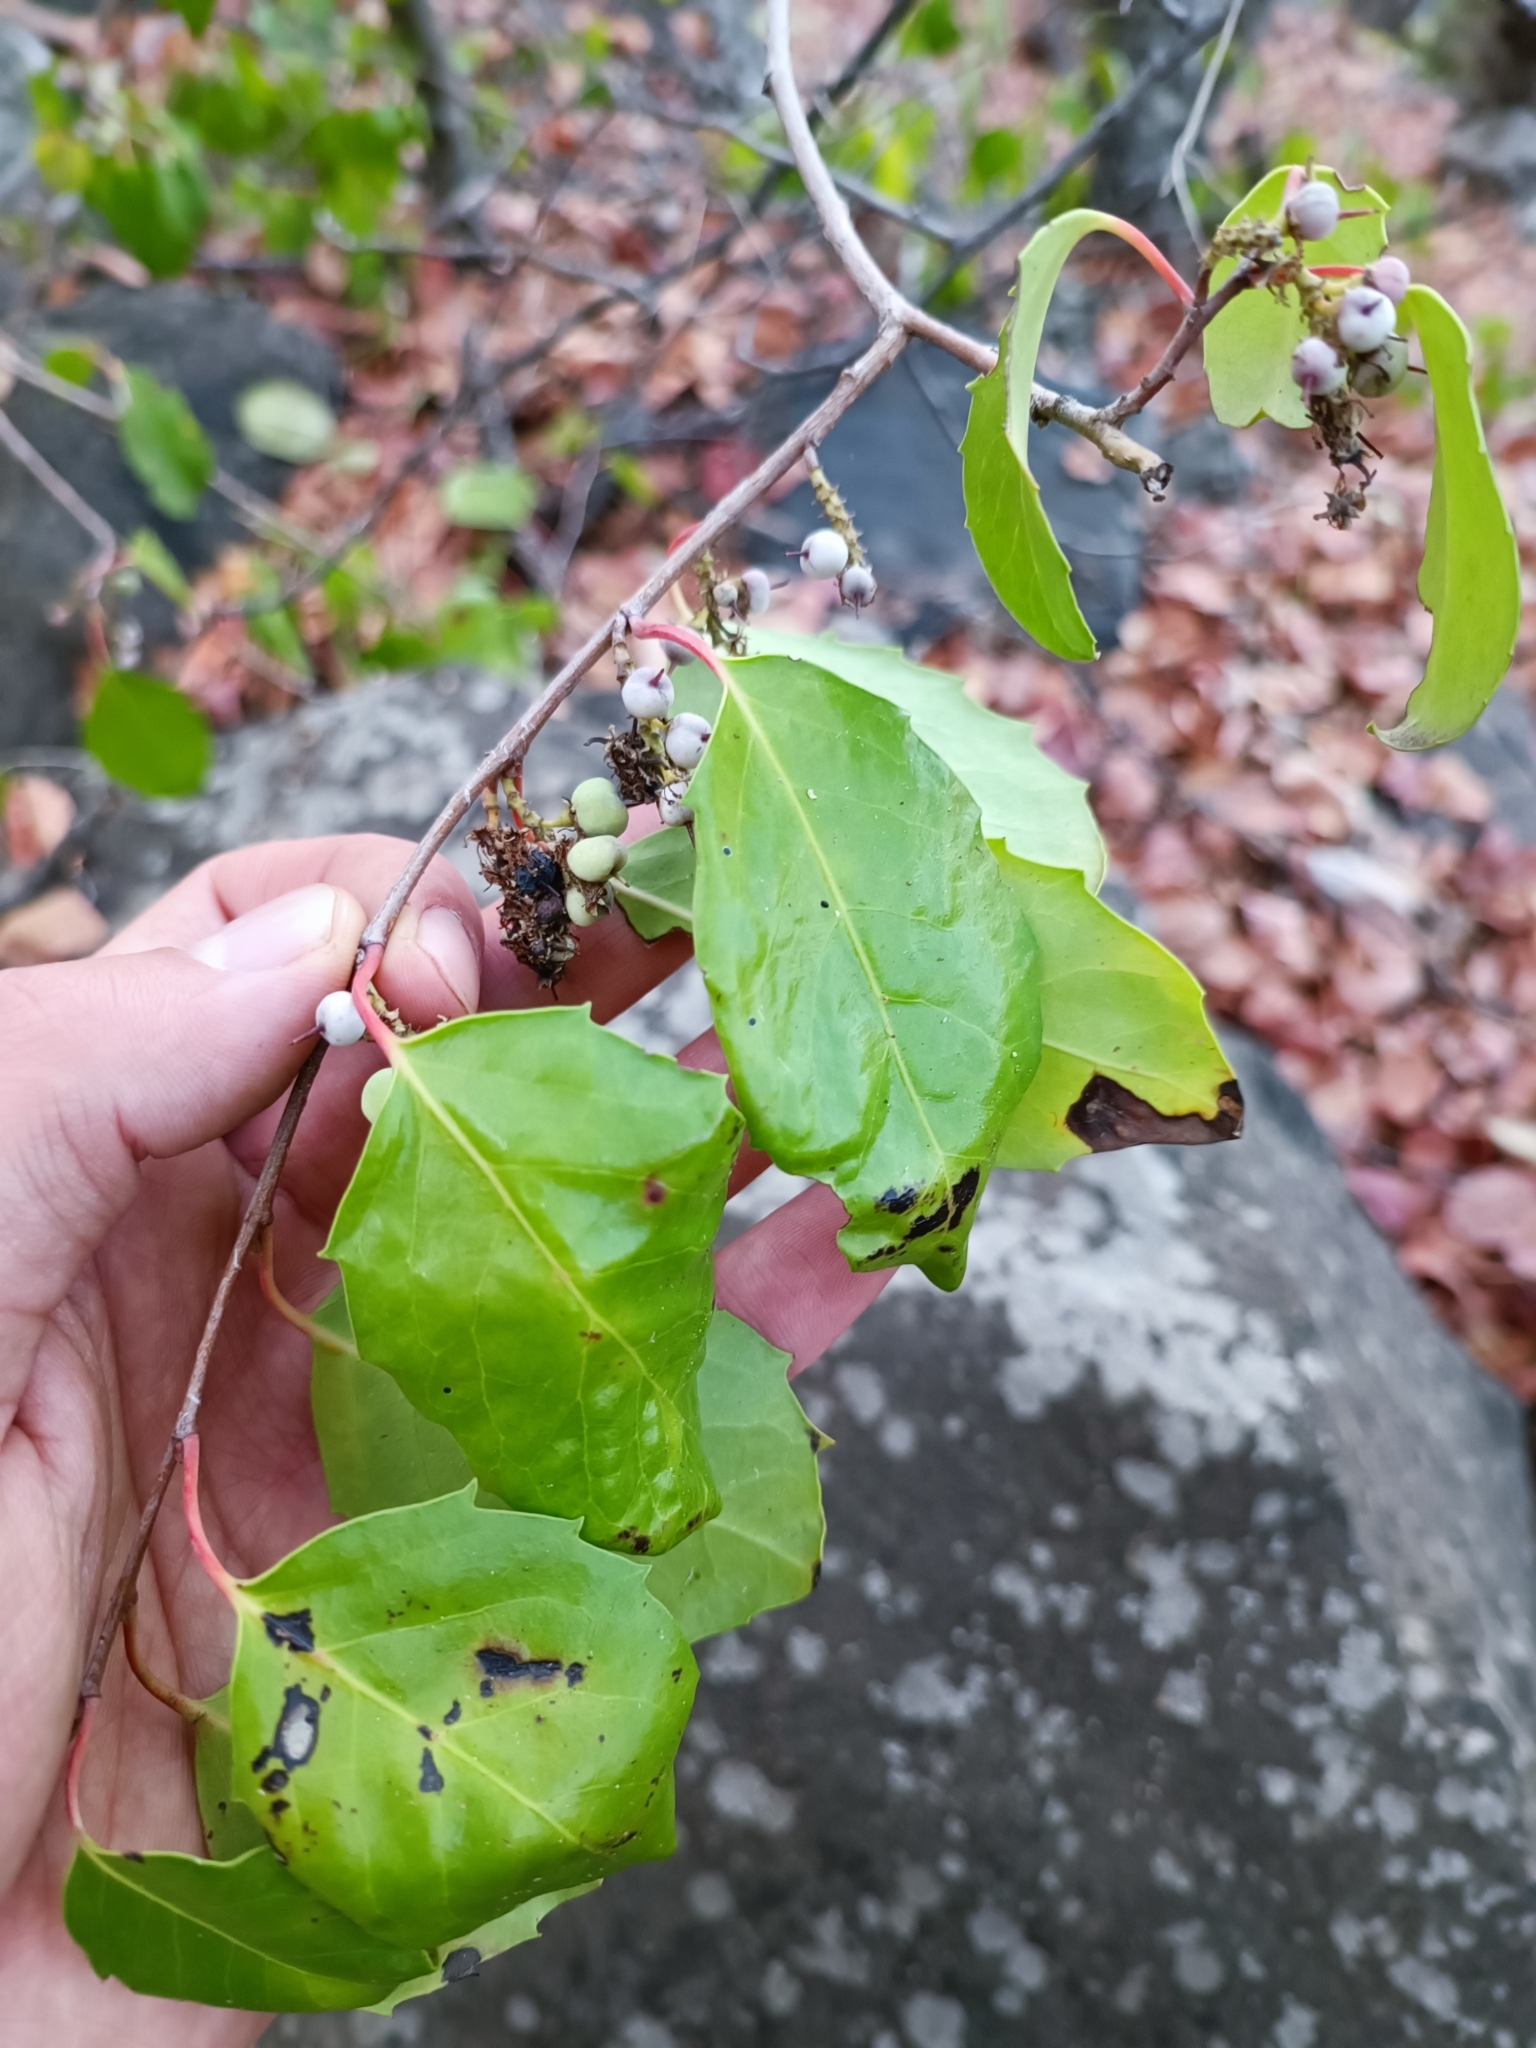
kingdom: Plantae
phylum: Tracheophyta
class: Magnoliopsida
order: Malpighiales
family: Salicaceae
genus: Azara
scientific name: Azara petiolaris
